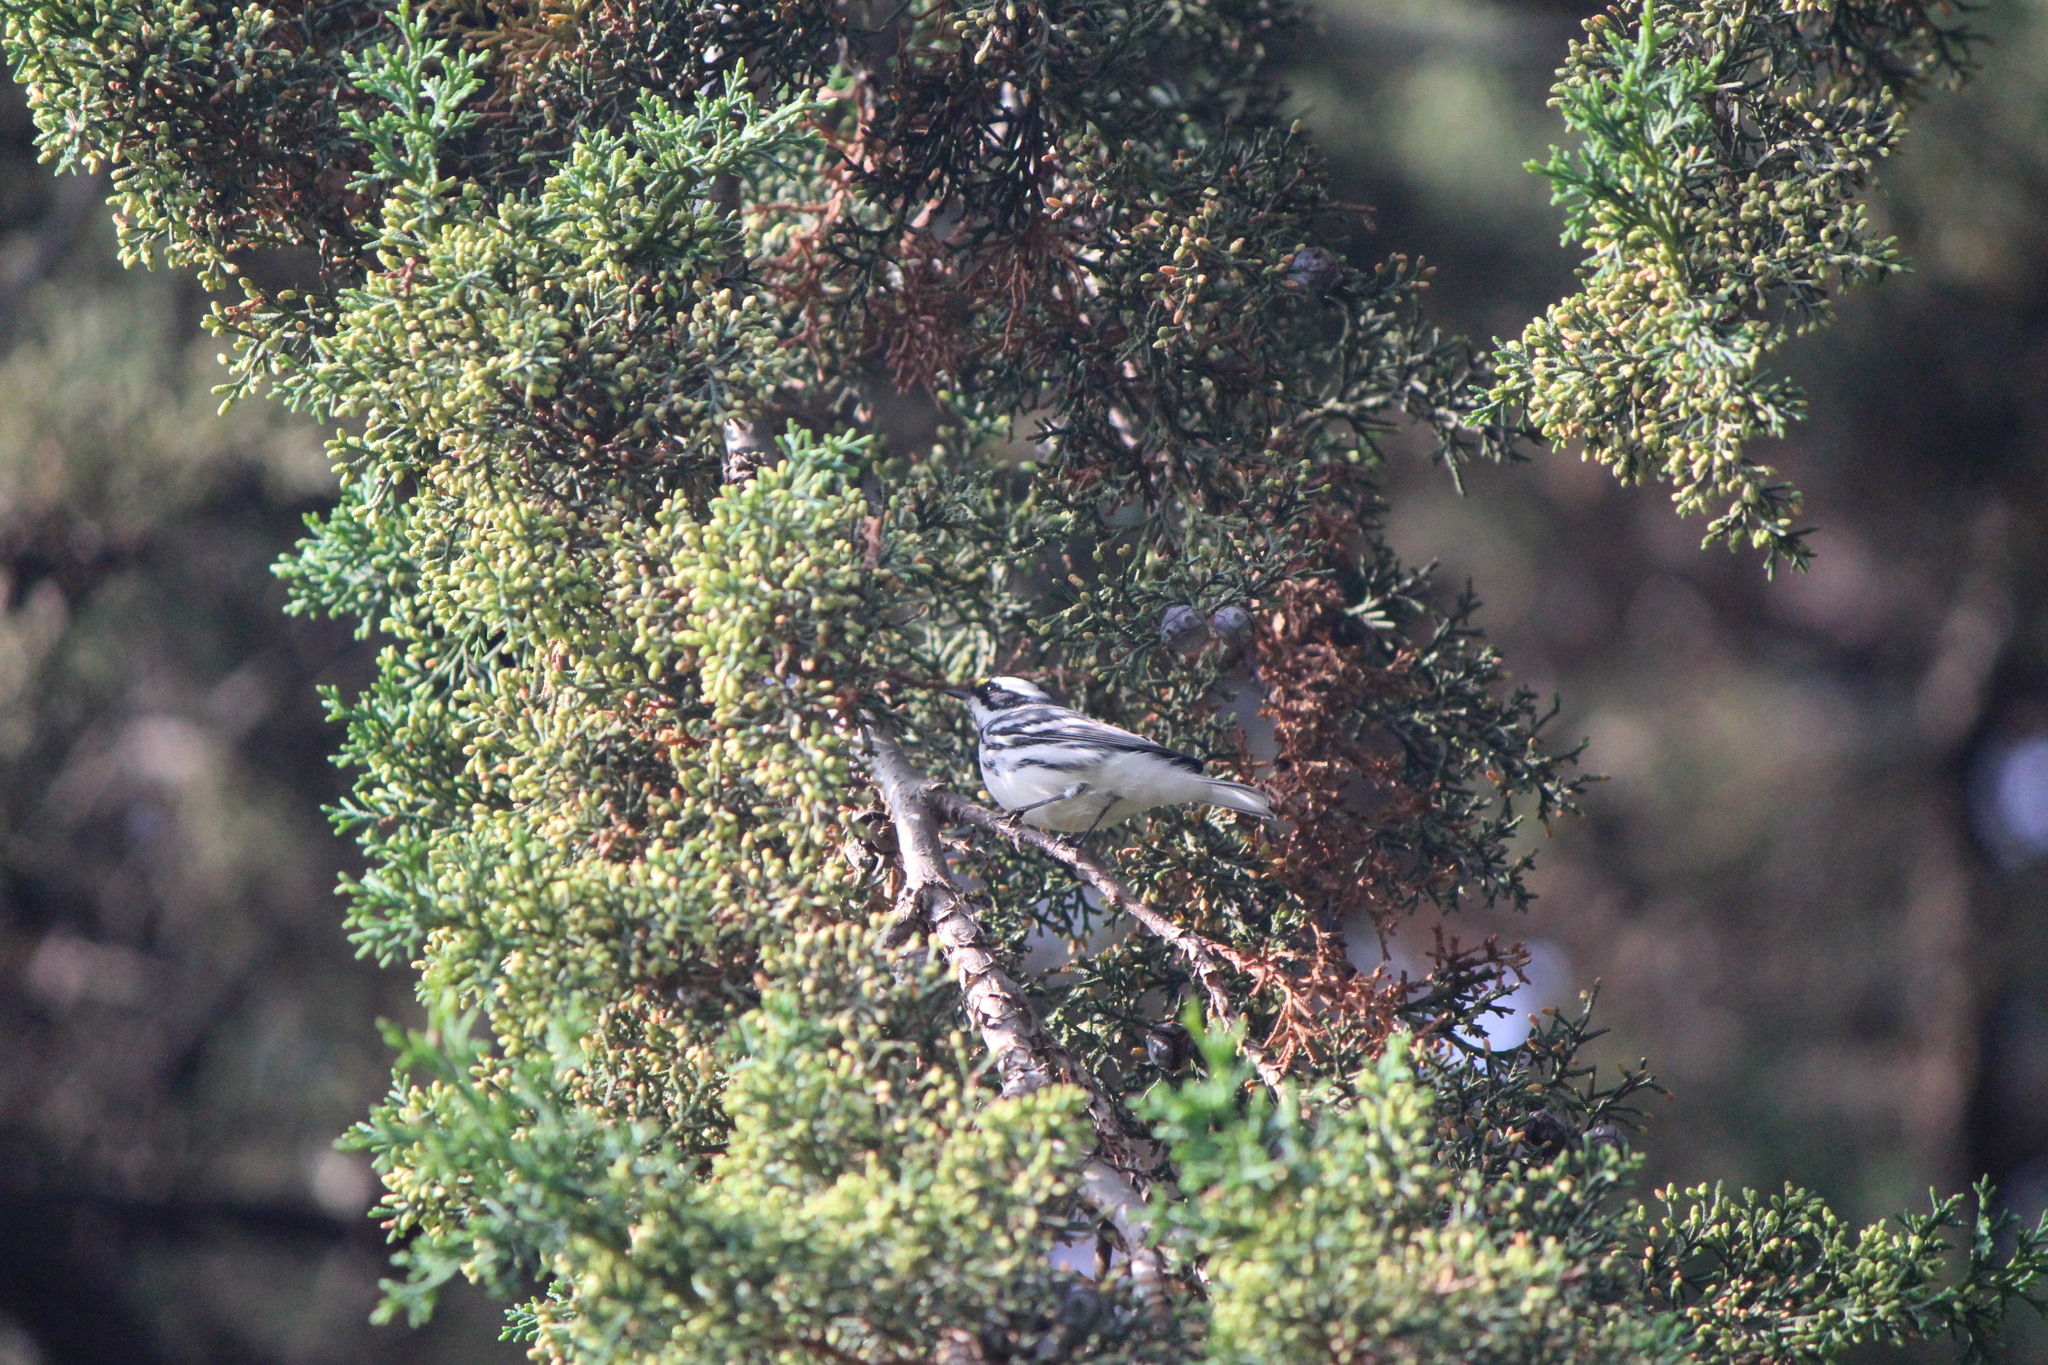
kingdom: Animalia
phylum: Chordata
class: Aves
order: Passeriformes
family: Parulidae
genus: Setophaga
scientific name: Setophaga nigrescens
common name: Black-throated gray warbler
